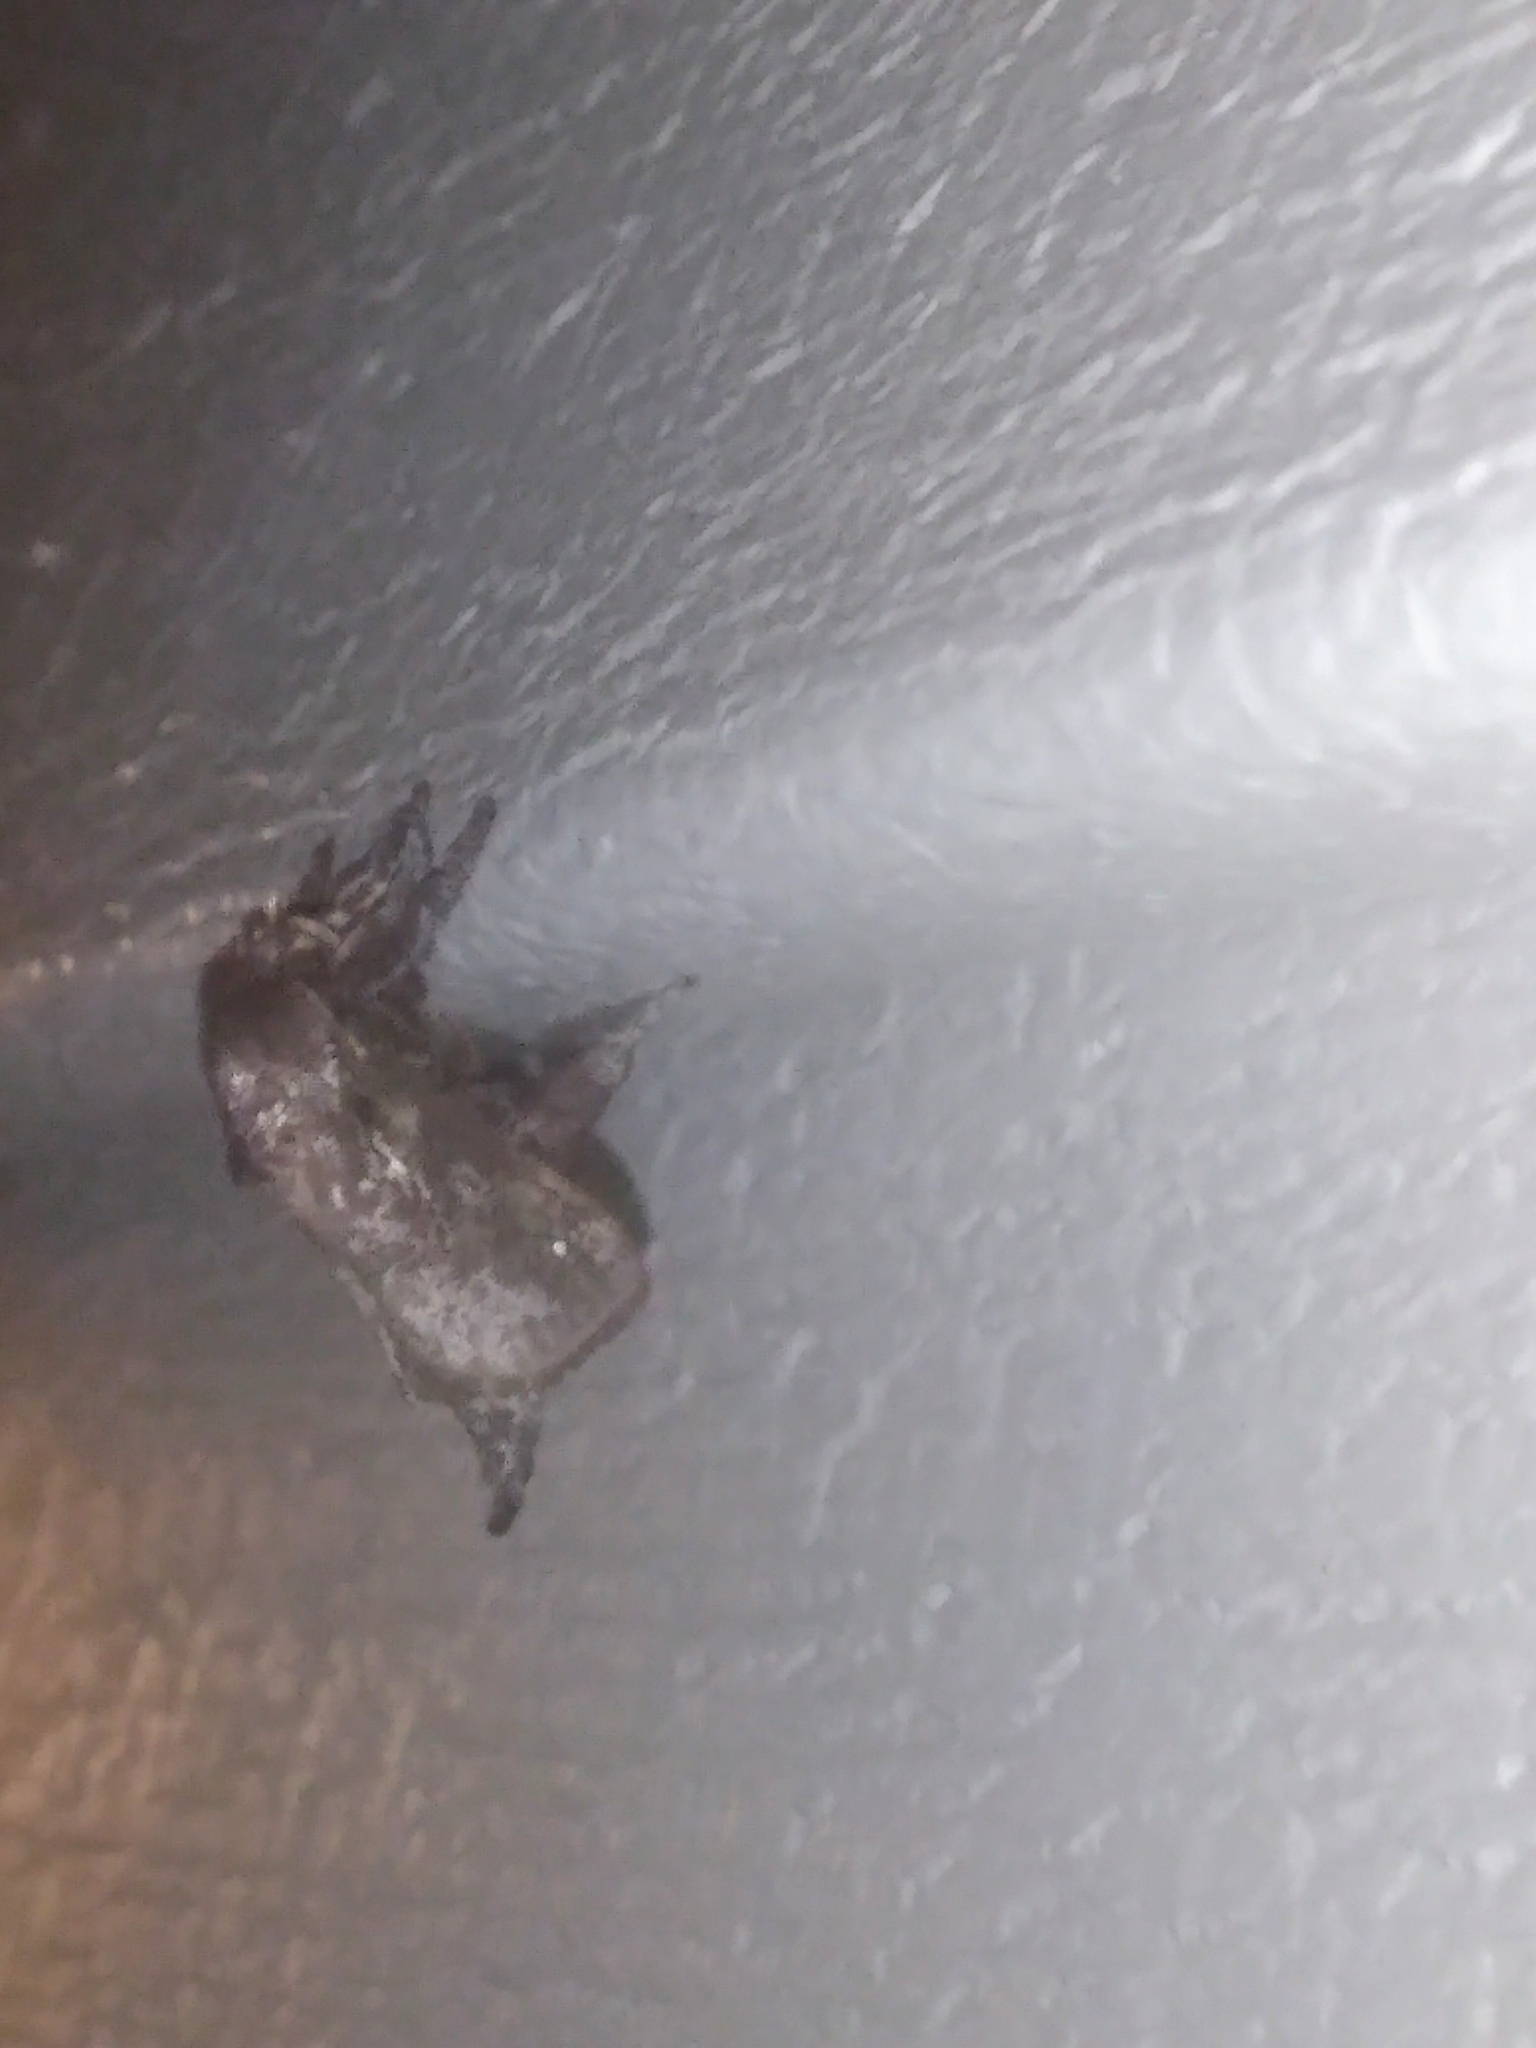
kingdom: Animalia
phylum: Arthropoda
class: Insecta
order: Lepidoptera
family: Limacodidae
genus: Acharia
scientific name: Acharia stimulea
